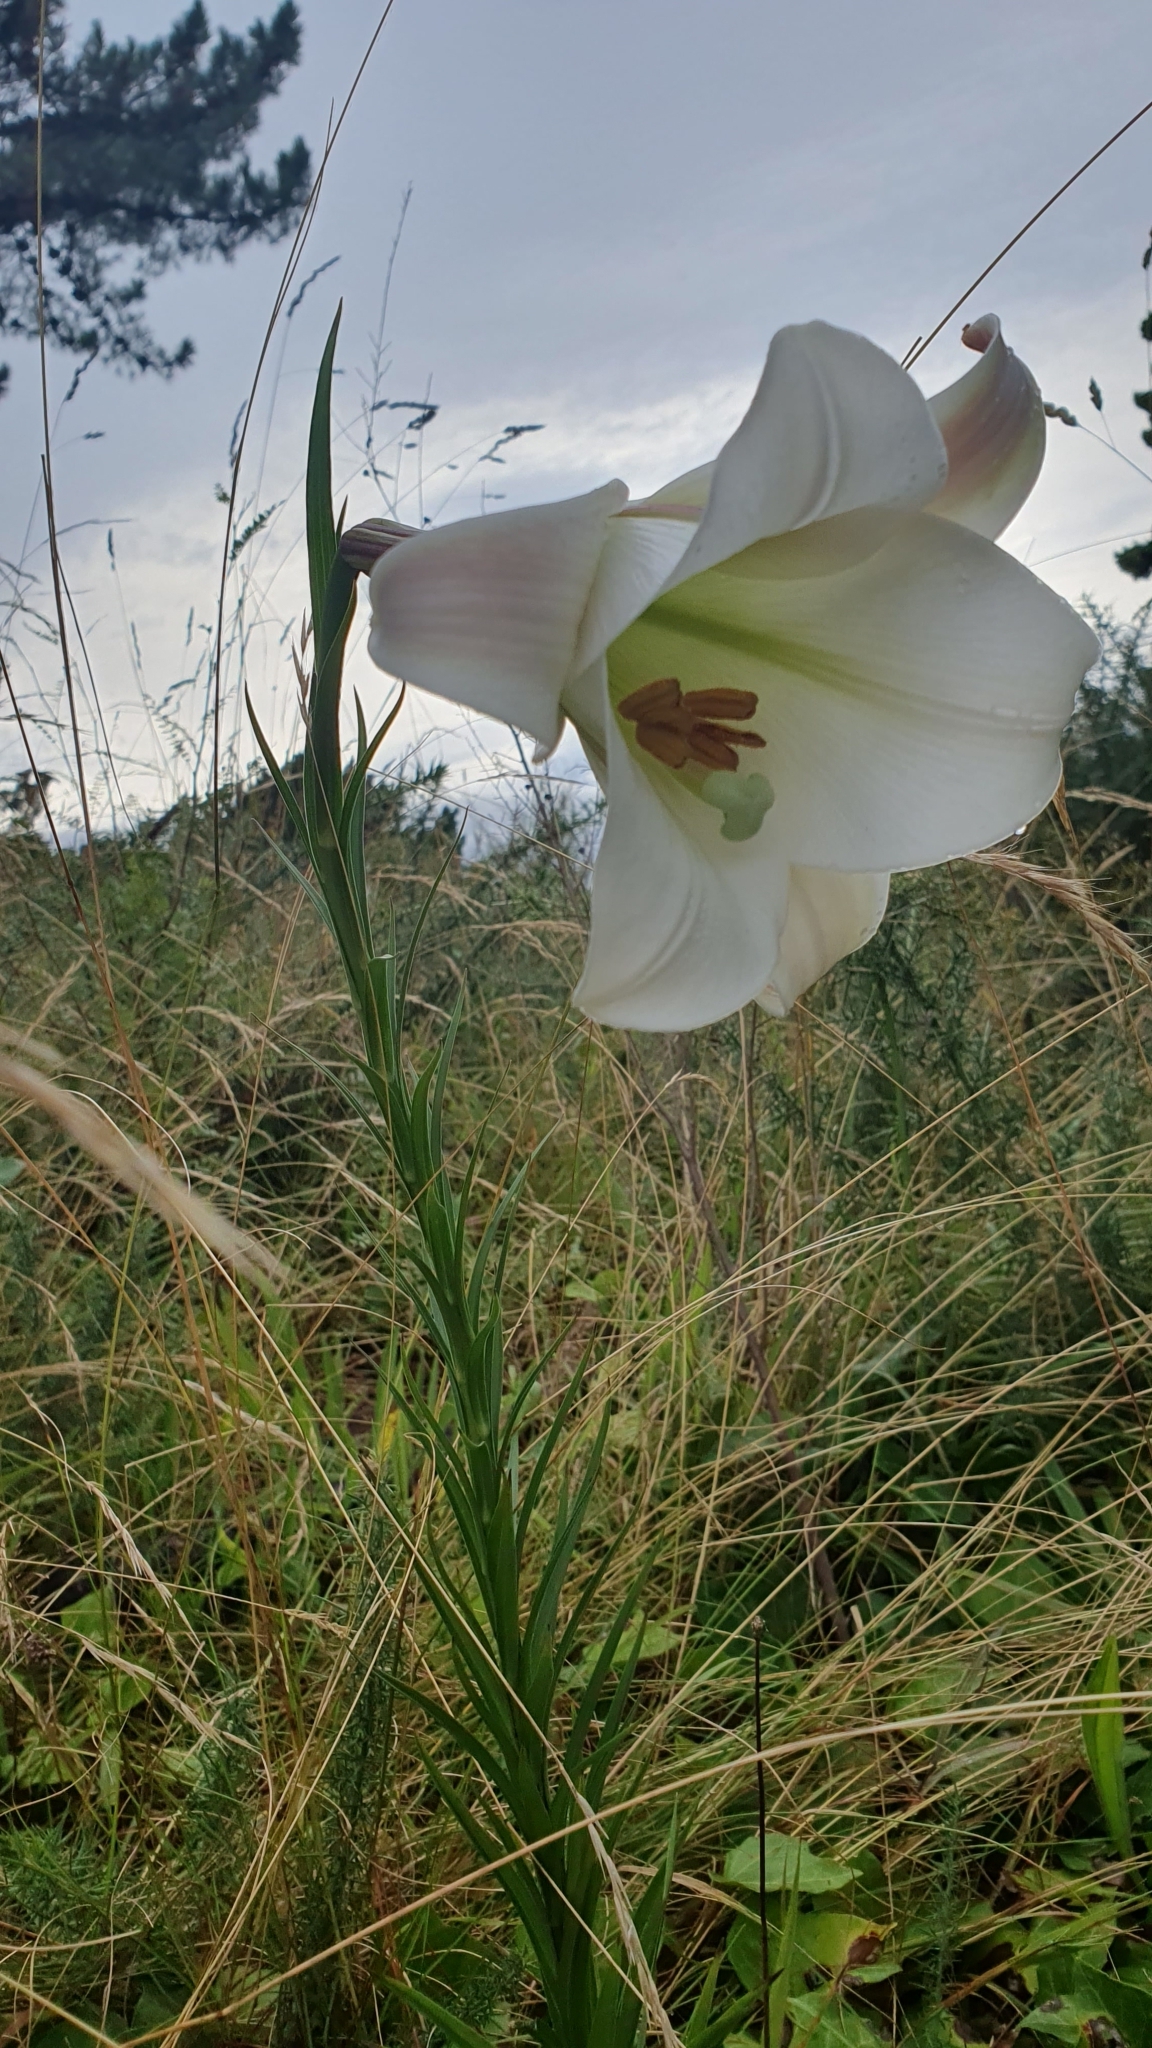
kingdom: Plantae
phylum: Tracheophyta
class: Liliopsida
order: Liliales
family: Liliaceae
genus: Lilium
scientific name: Lilium formosanum
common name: Formosa lily
